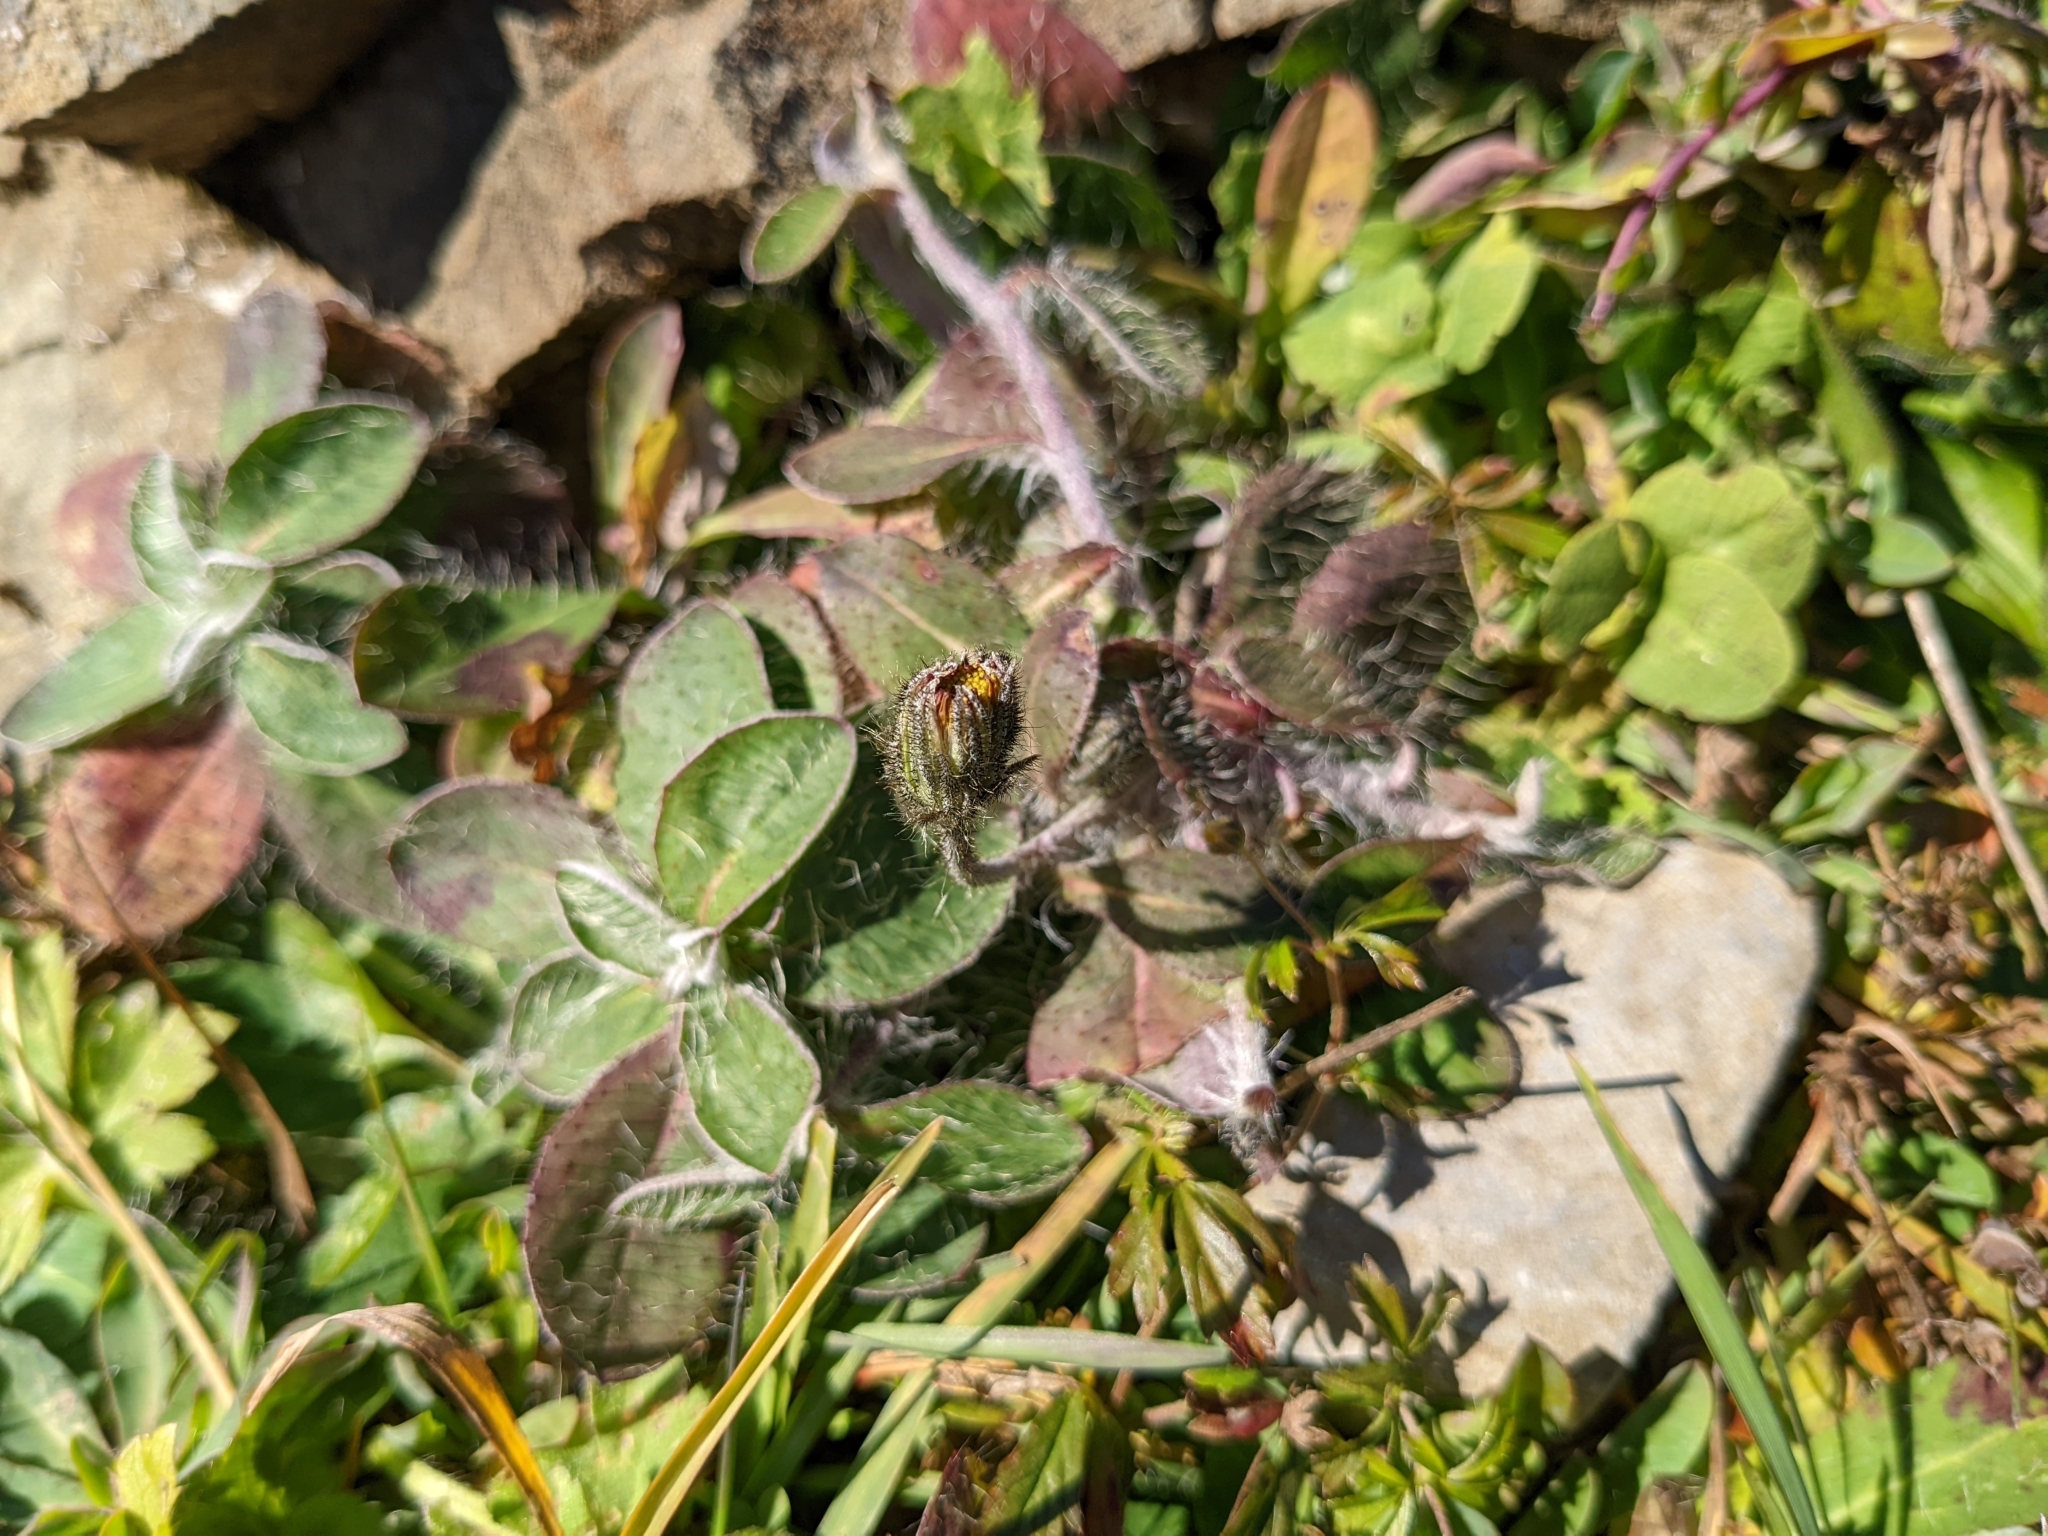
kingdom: Plantae
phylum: Tracheophyta
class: Magnoliopsida
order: Asterales
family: Asteraceae
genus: Pilosella
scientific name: Pilosella officinarum
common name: Mouse-ear hawkweed
